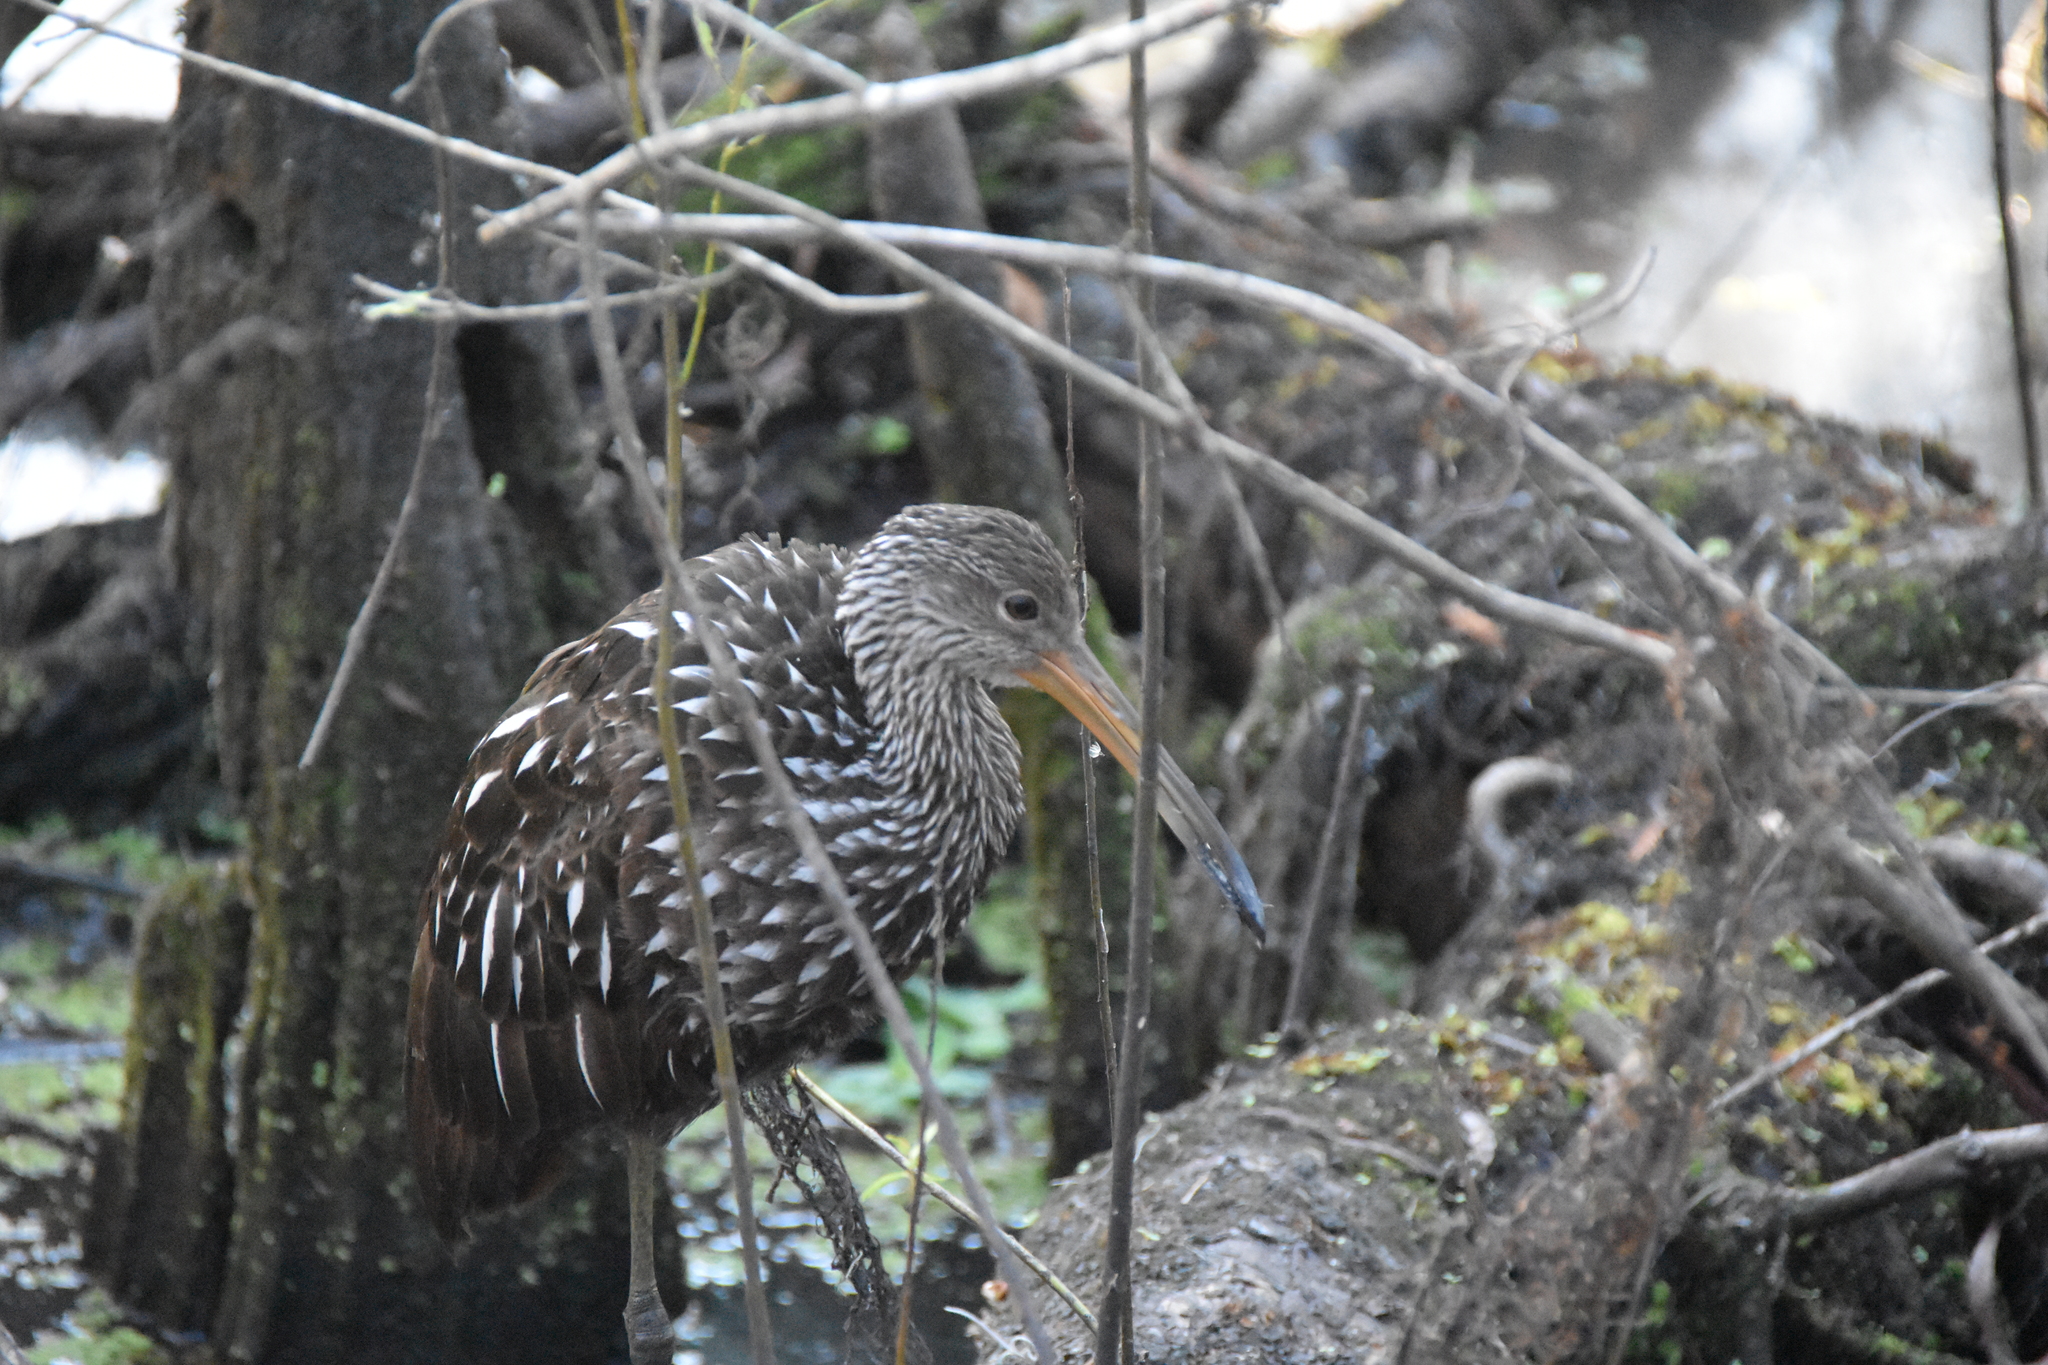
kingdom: Animalia
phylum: Chordata
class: Aves
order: Gruiformes
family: Aramidae
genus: Aramus
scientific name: Aramus guarauna
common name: Limpkin
